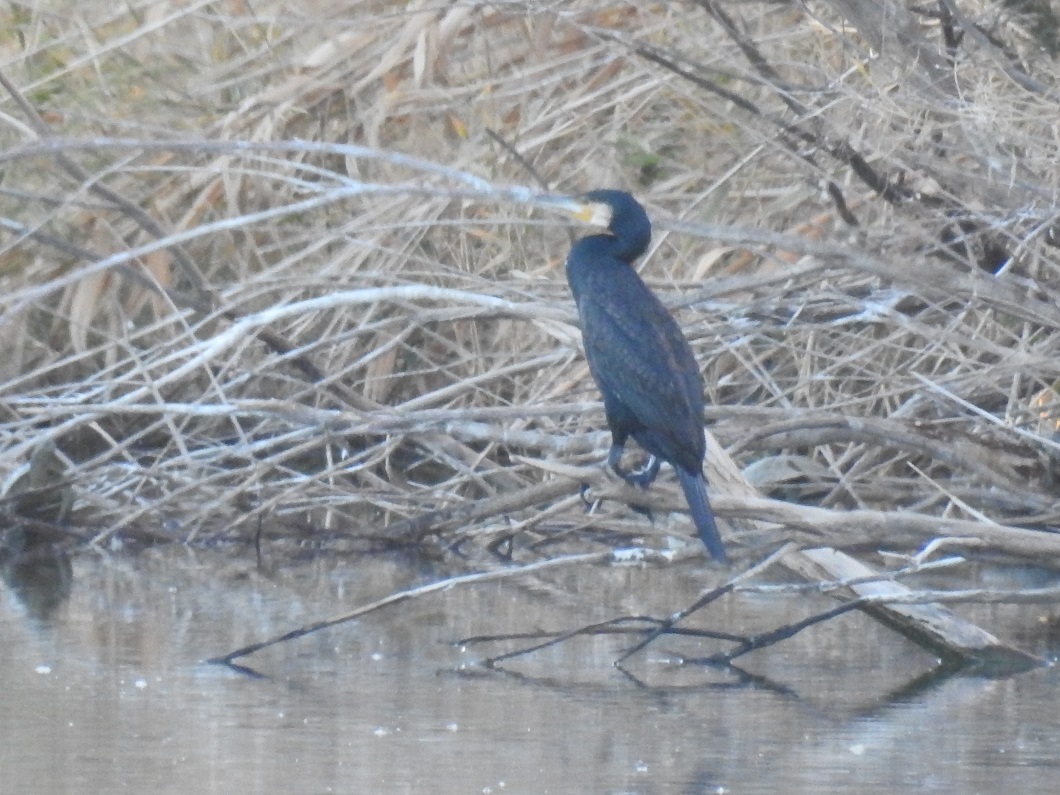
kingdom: Animalia
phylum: Chordata
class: Aves
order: Suliformes
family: Phalacrocoracidae
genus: Phalacrocorax
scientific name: Phalacrocorax carbo
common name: Great cormorant
